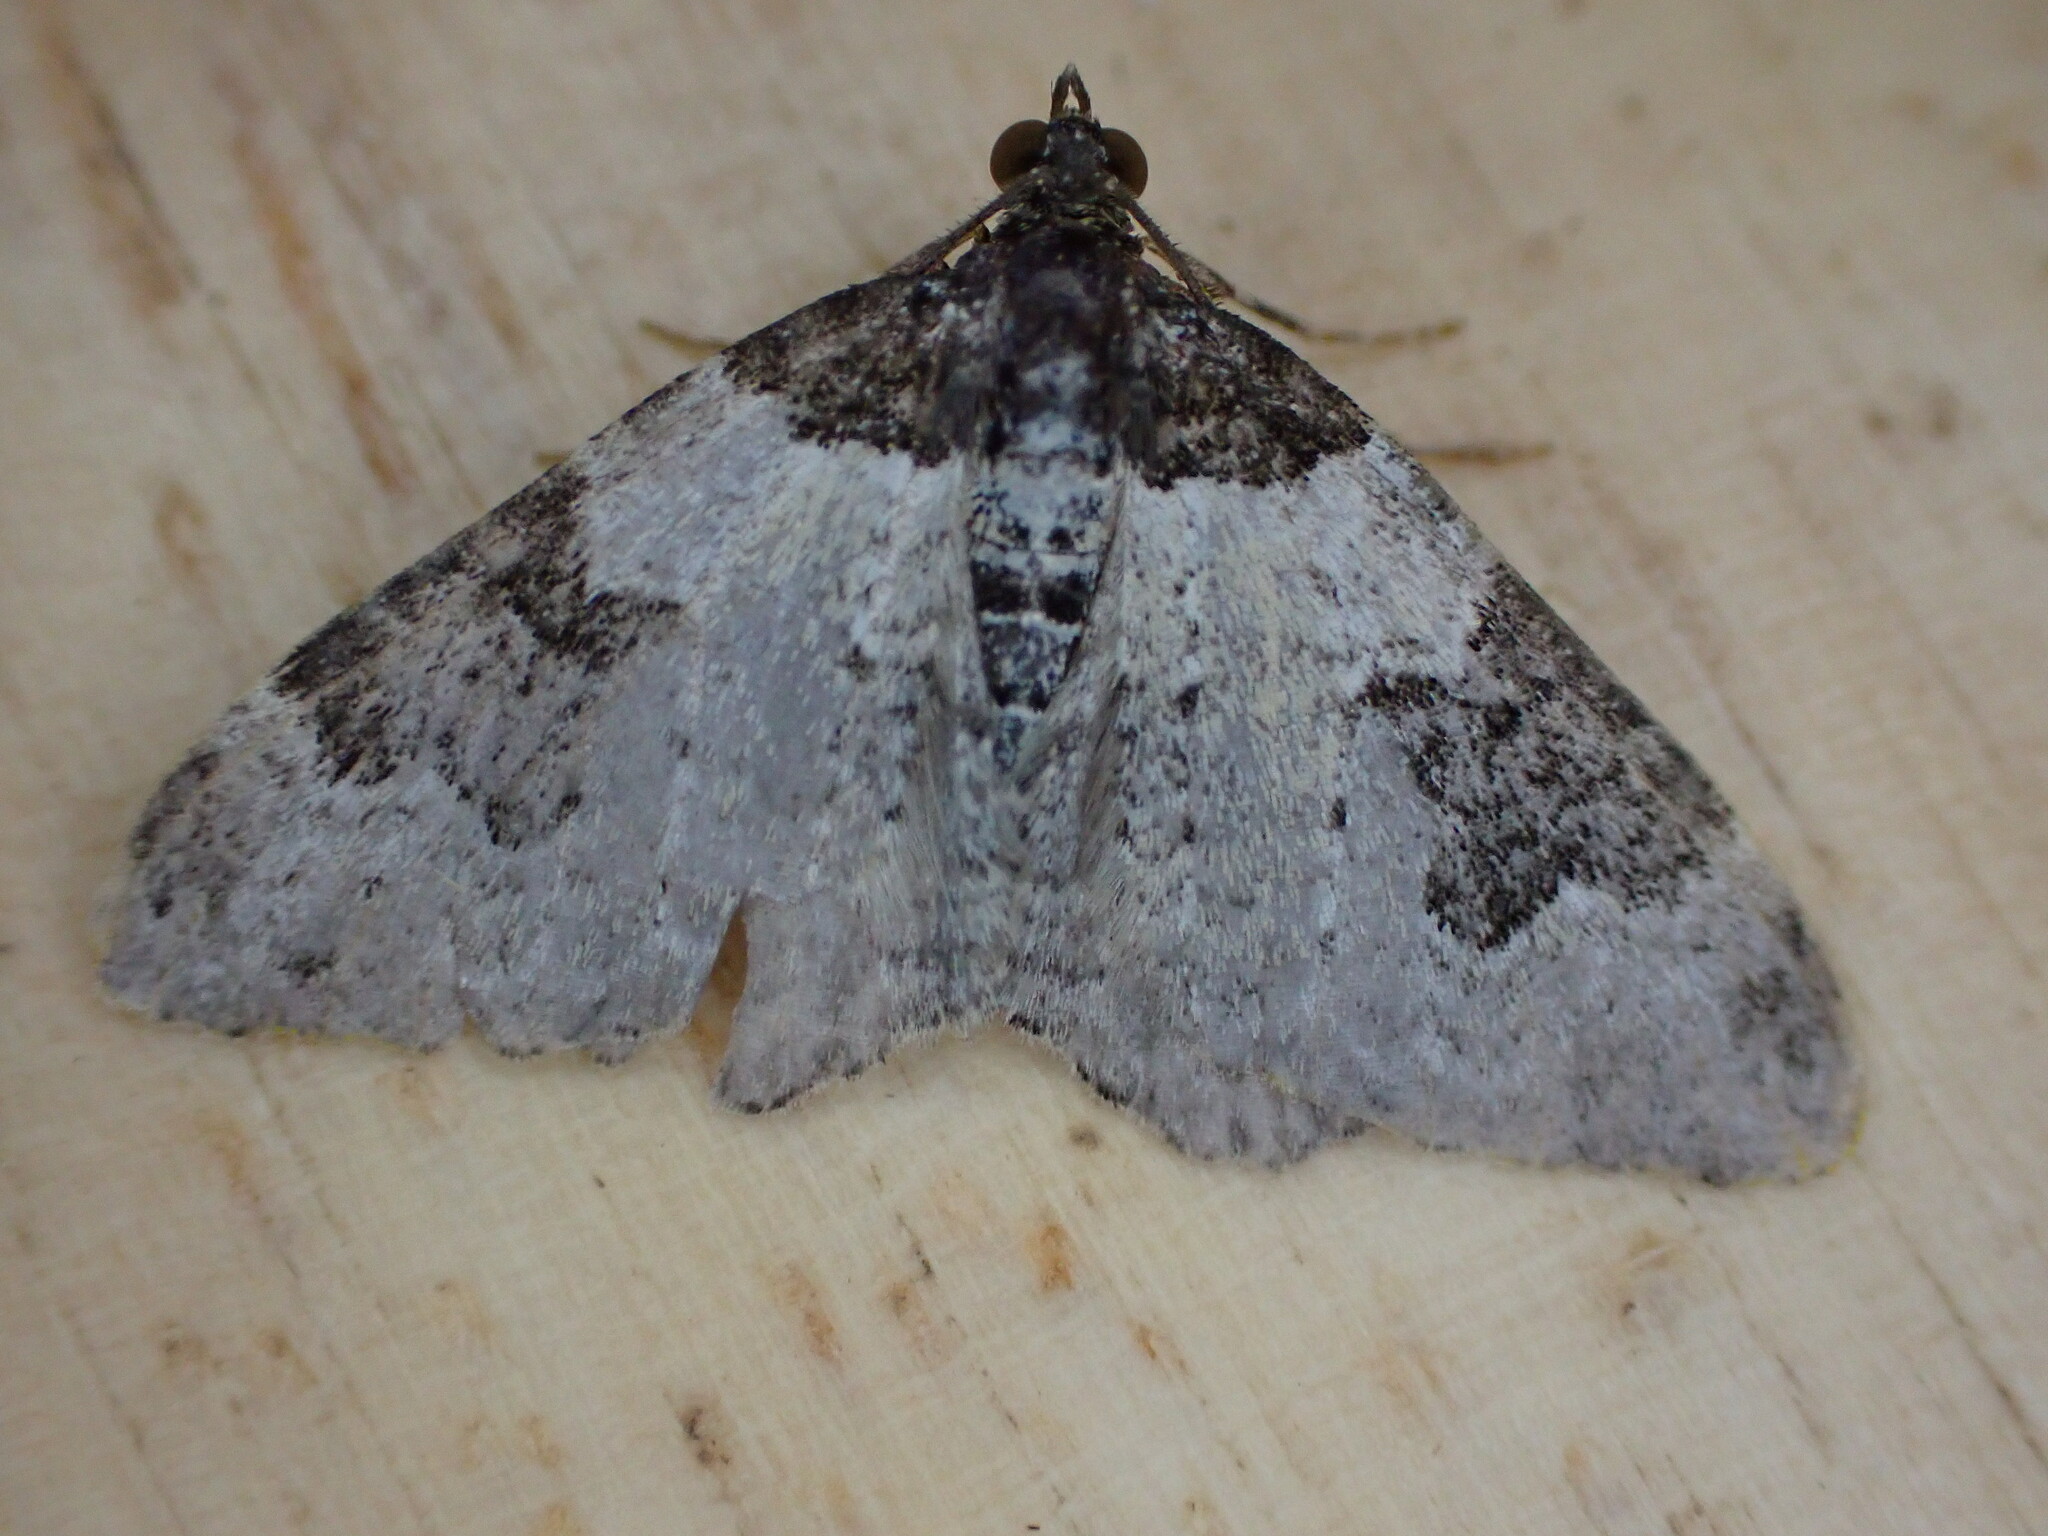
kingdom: Animalia
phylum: Arthropoda
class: Insecta
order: Lepidoptera
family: Geometridae
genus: Xanthorhoe
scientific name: Xanthorhoe fluctuata
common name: Garden carpet
